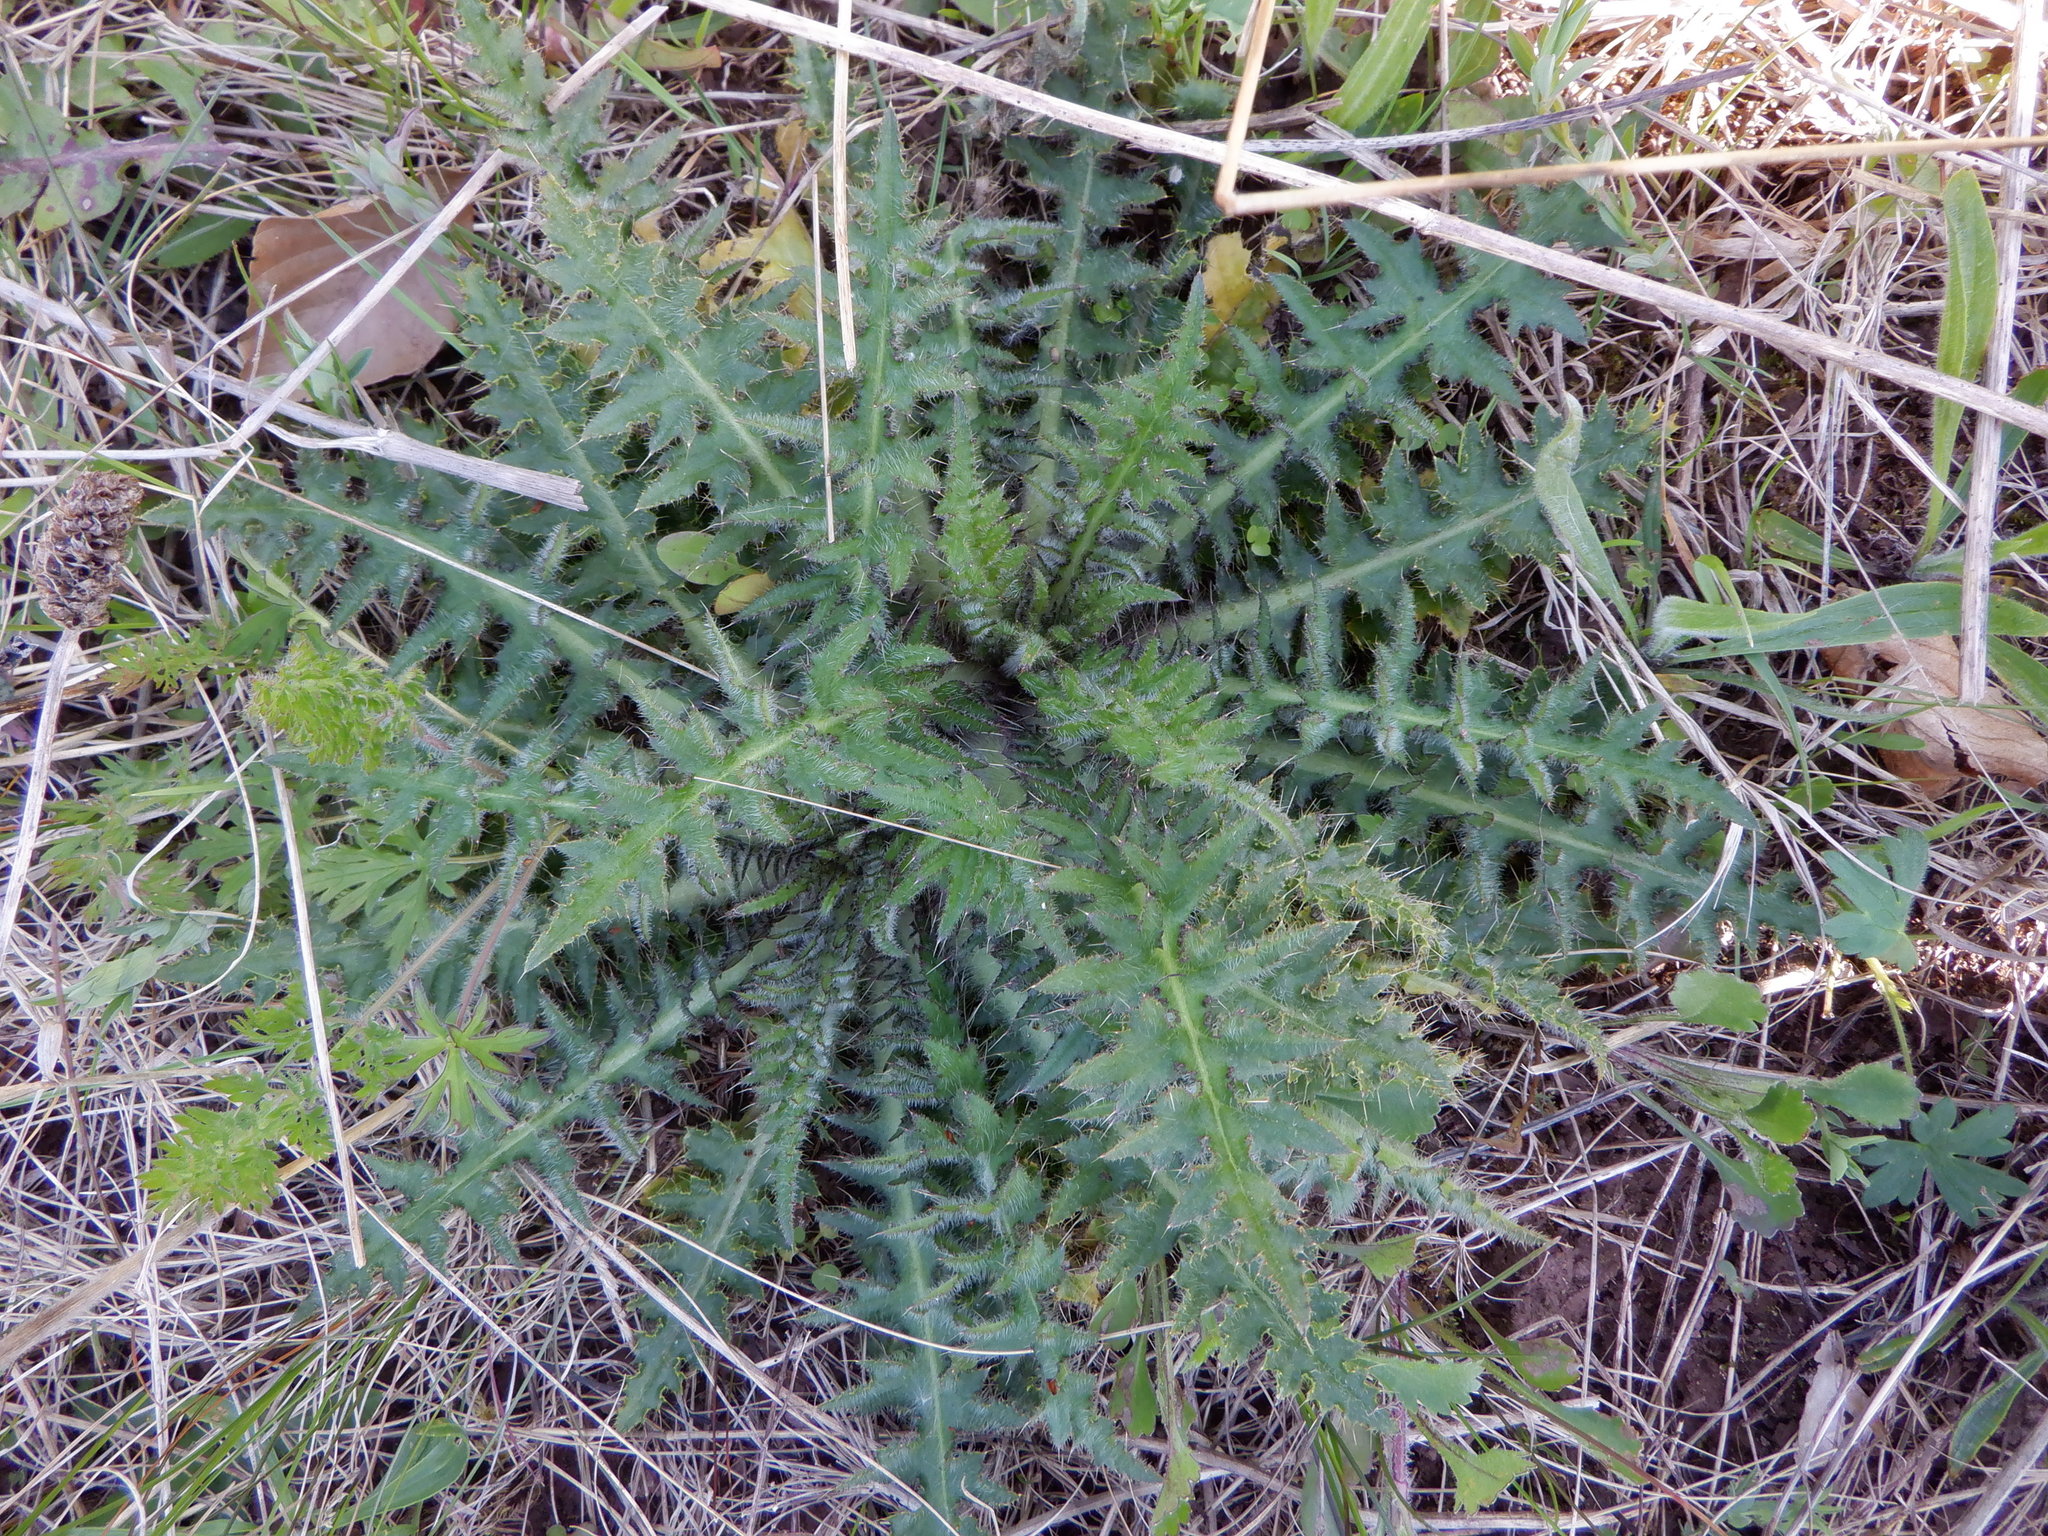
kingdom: Plantae
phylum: Tracheophyta
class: Magnoliopsida
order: Asterales
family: Asteraceae
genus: Cirsium
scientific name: Cirsium palustre
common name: Marsh thistle
